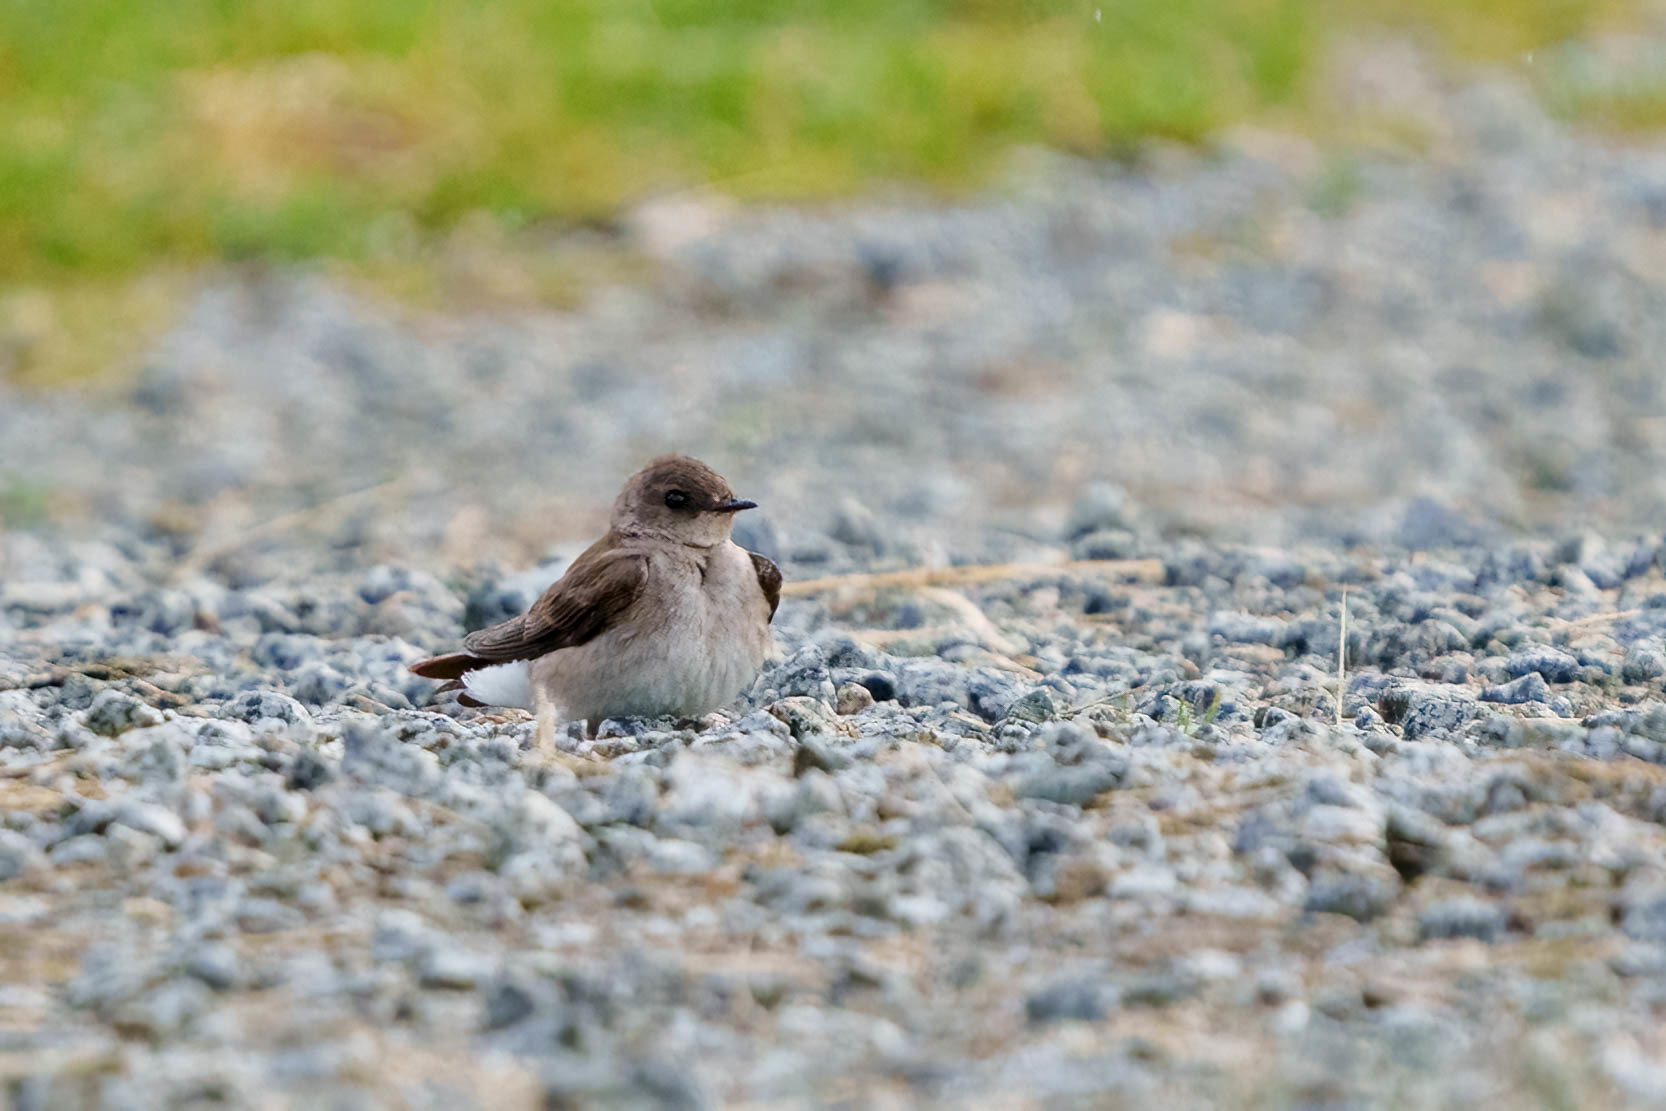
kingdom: Animalia
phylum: Chordata
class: Aves
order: Passeriformes
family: Hirundinidae
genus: Stelgidopteryx
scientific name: Stelgidopteryx serripennis
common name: Northern rough-winged swallow
